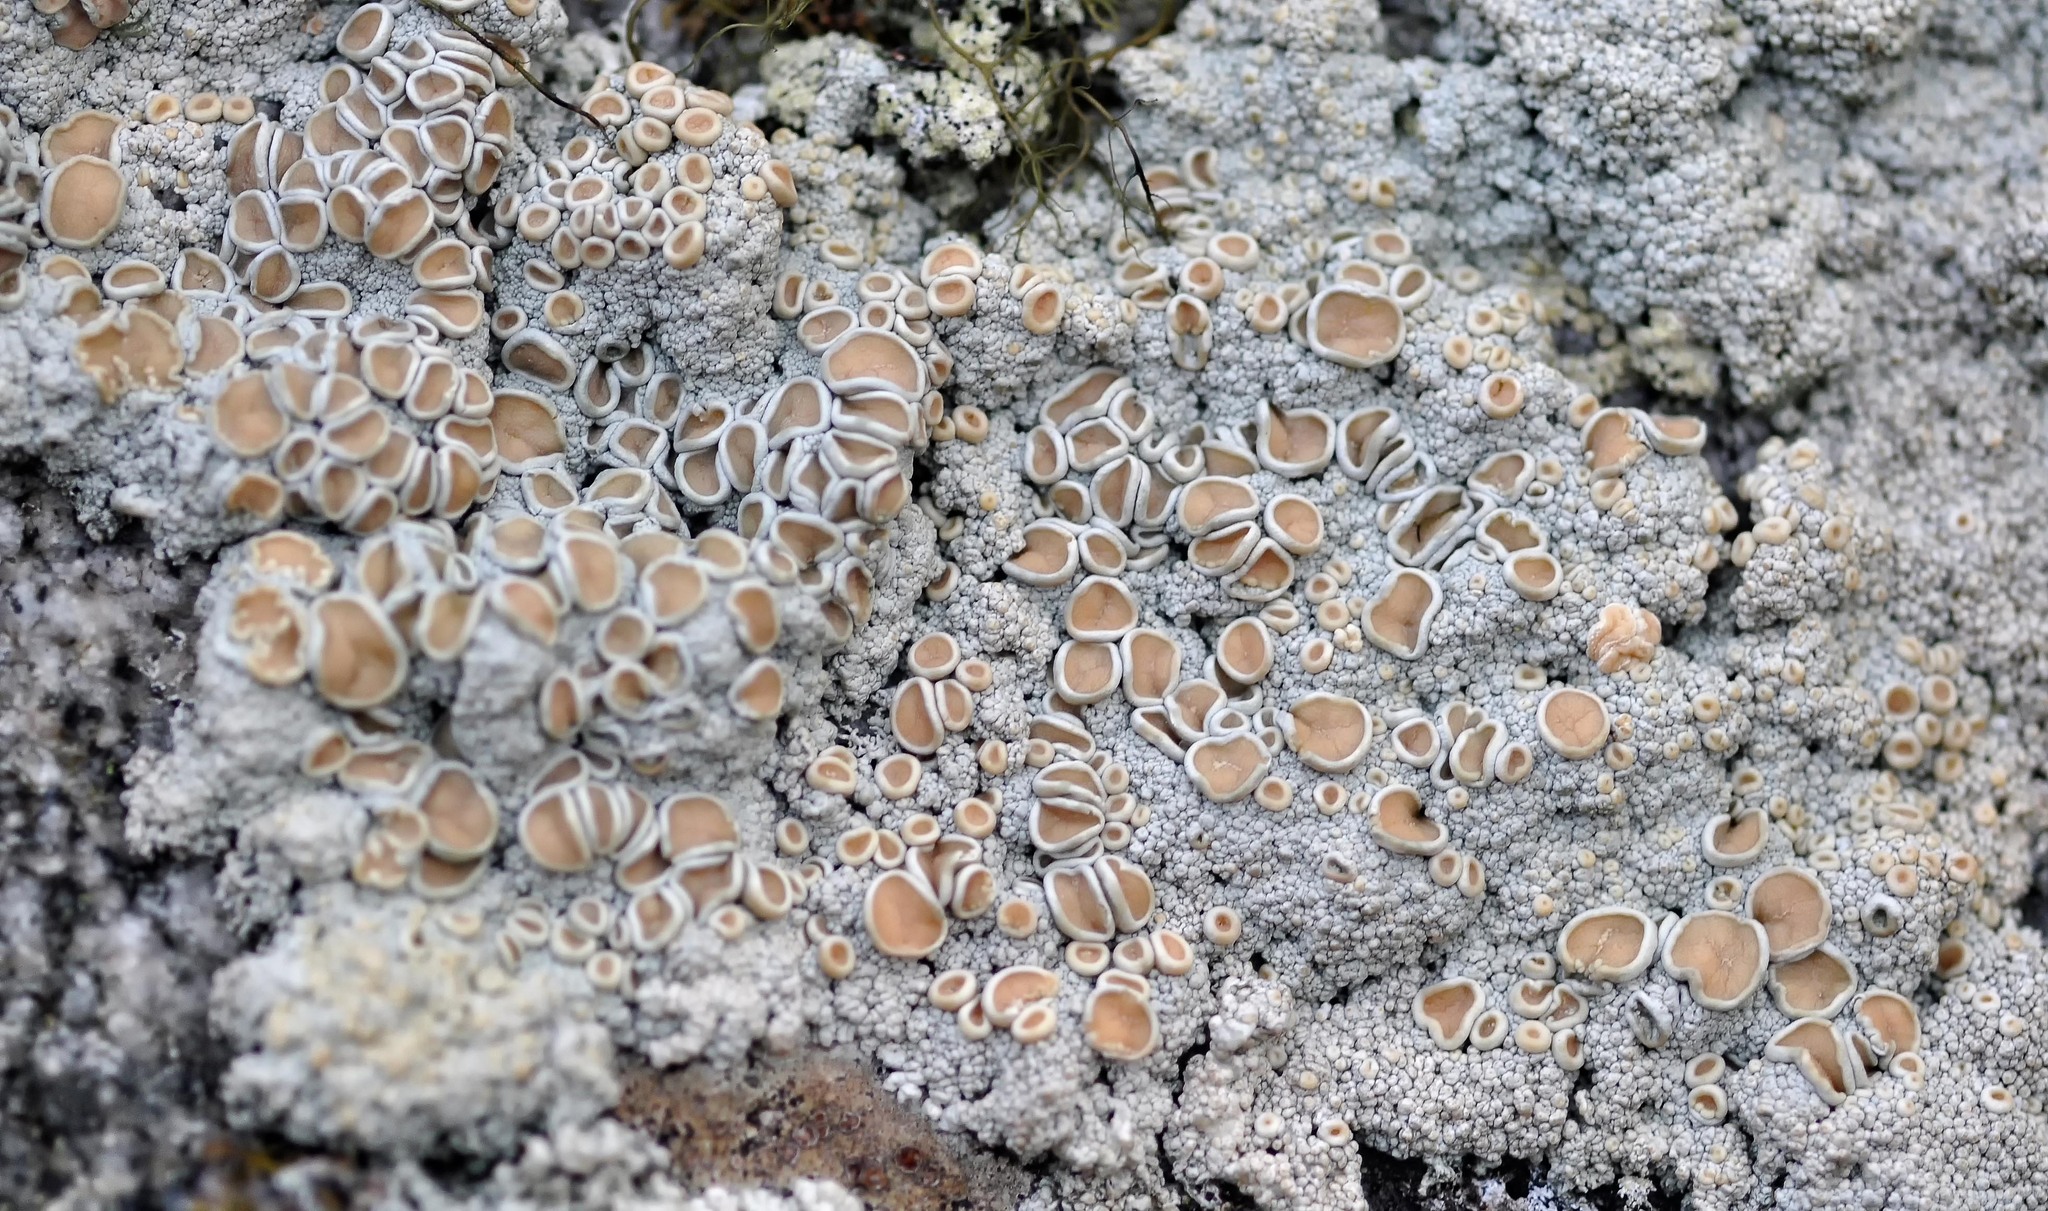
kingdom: Fungi
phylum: Ascomycota
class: Lecanoromycetes
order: Pertusariales
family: Ochrolechiaceae
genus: Ochrolechia
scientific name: Ochrolechia tartarea
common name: Cudbear
